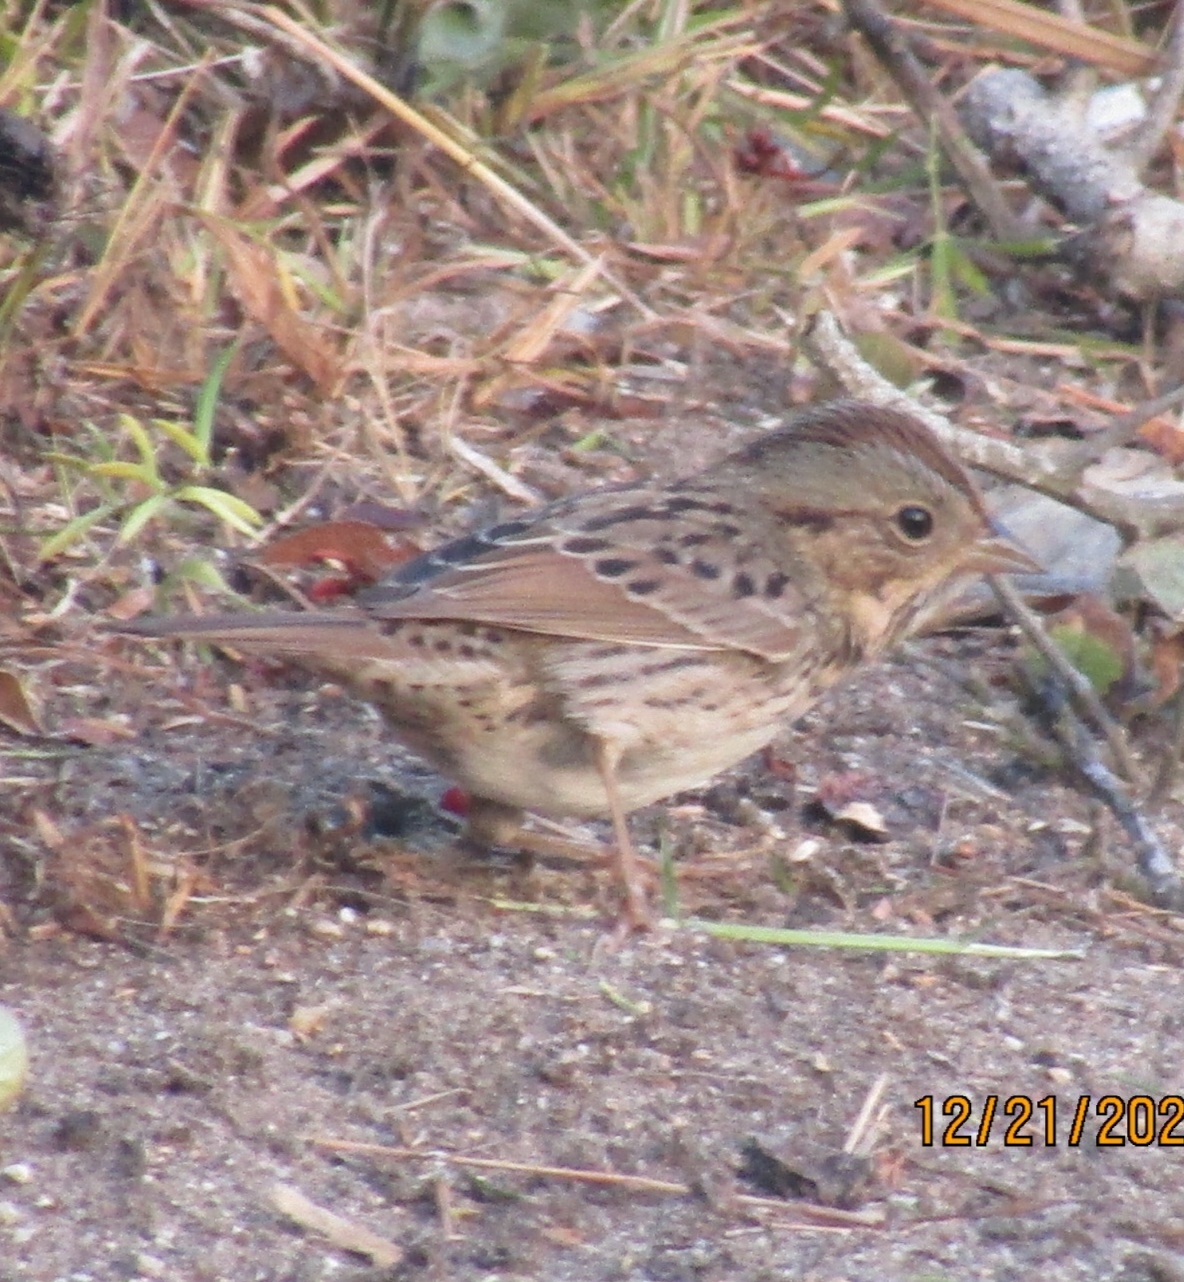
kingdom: Animalia
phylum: Chordata
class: Aves
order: Passeriformes
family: Passerellidae
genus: Melospiza
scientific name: Melospiza lincolnii
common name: Lincoln's sparrow
